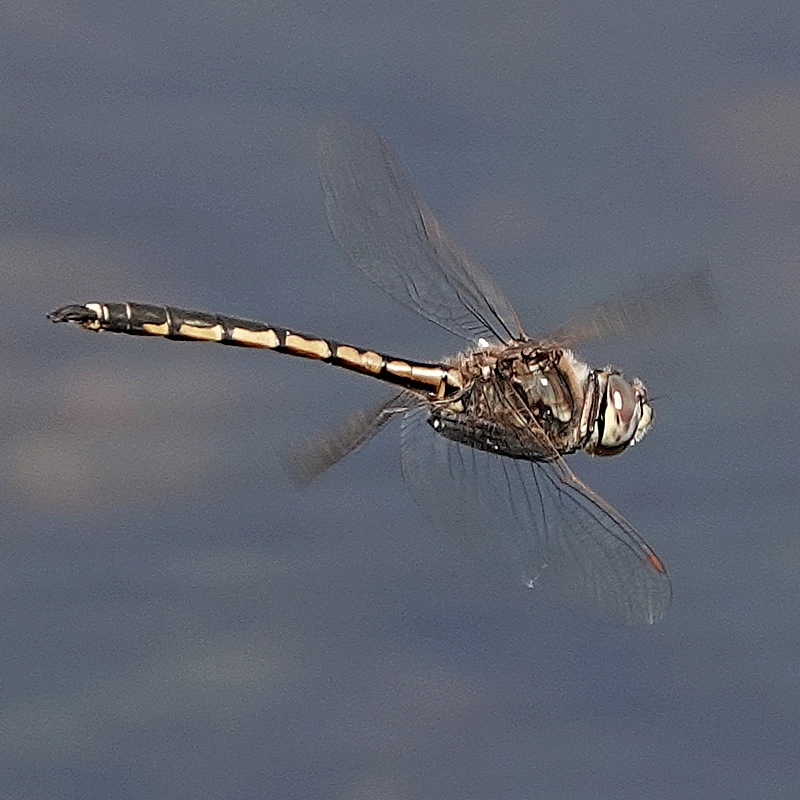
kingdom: Animalia
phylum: Arthropoda
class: Insecta
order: Odonata
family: Corduliidae
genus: Hemicordulia
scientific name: Hemicordulia tau
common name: Tau emerald
